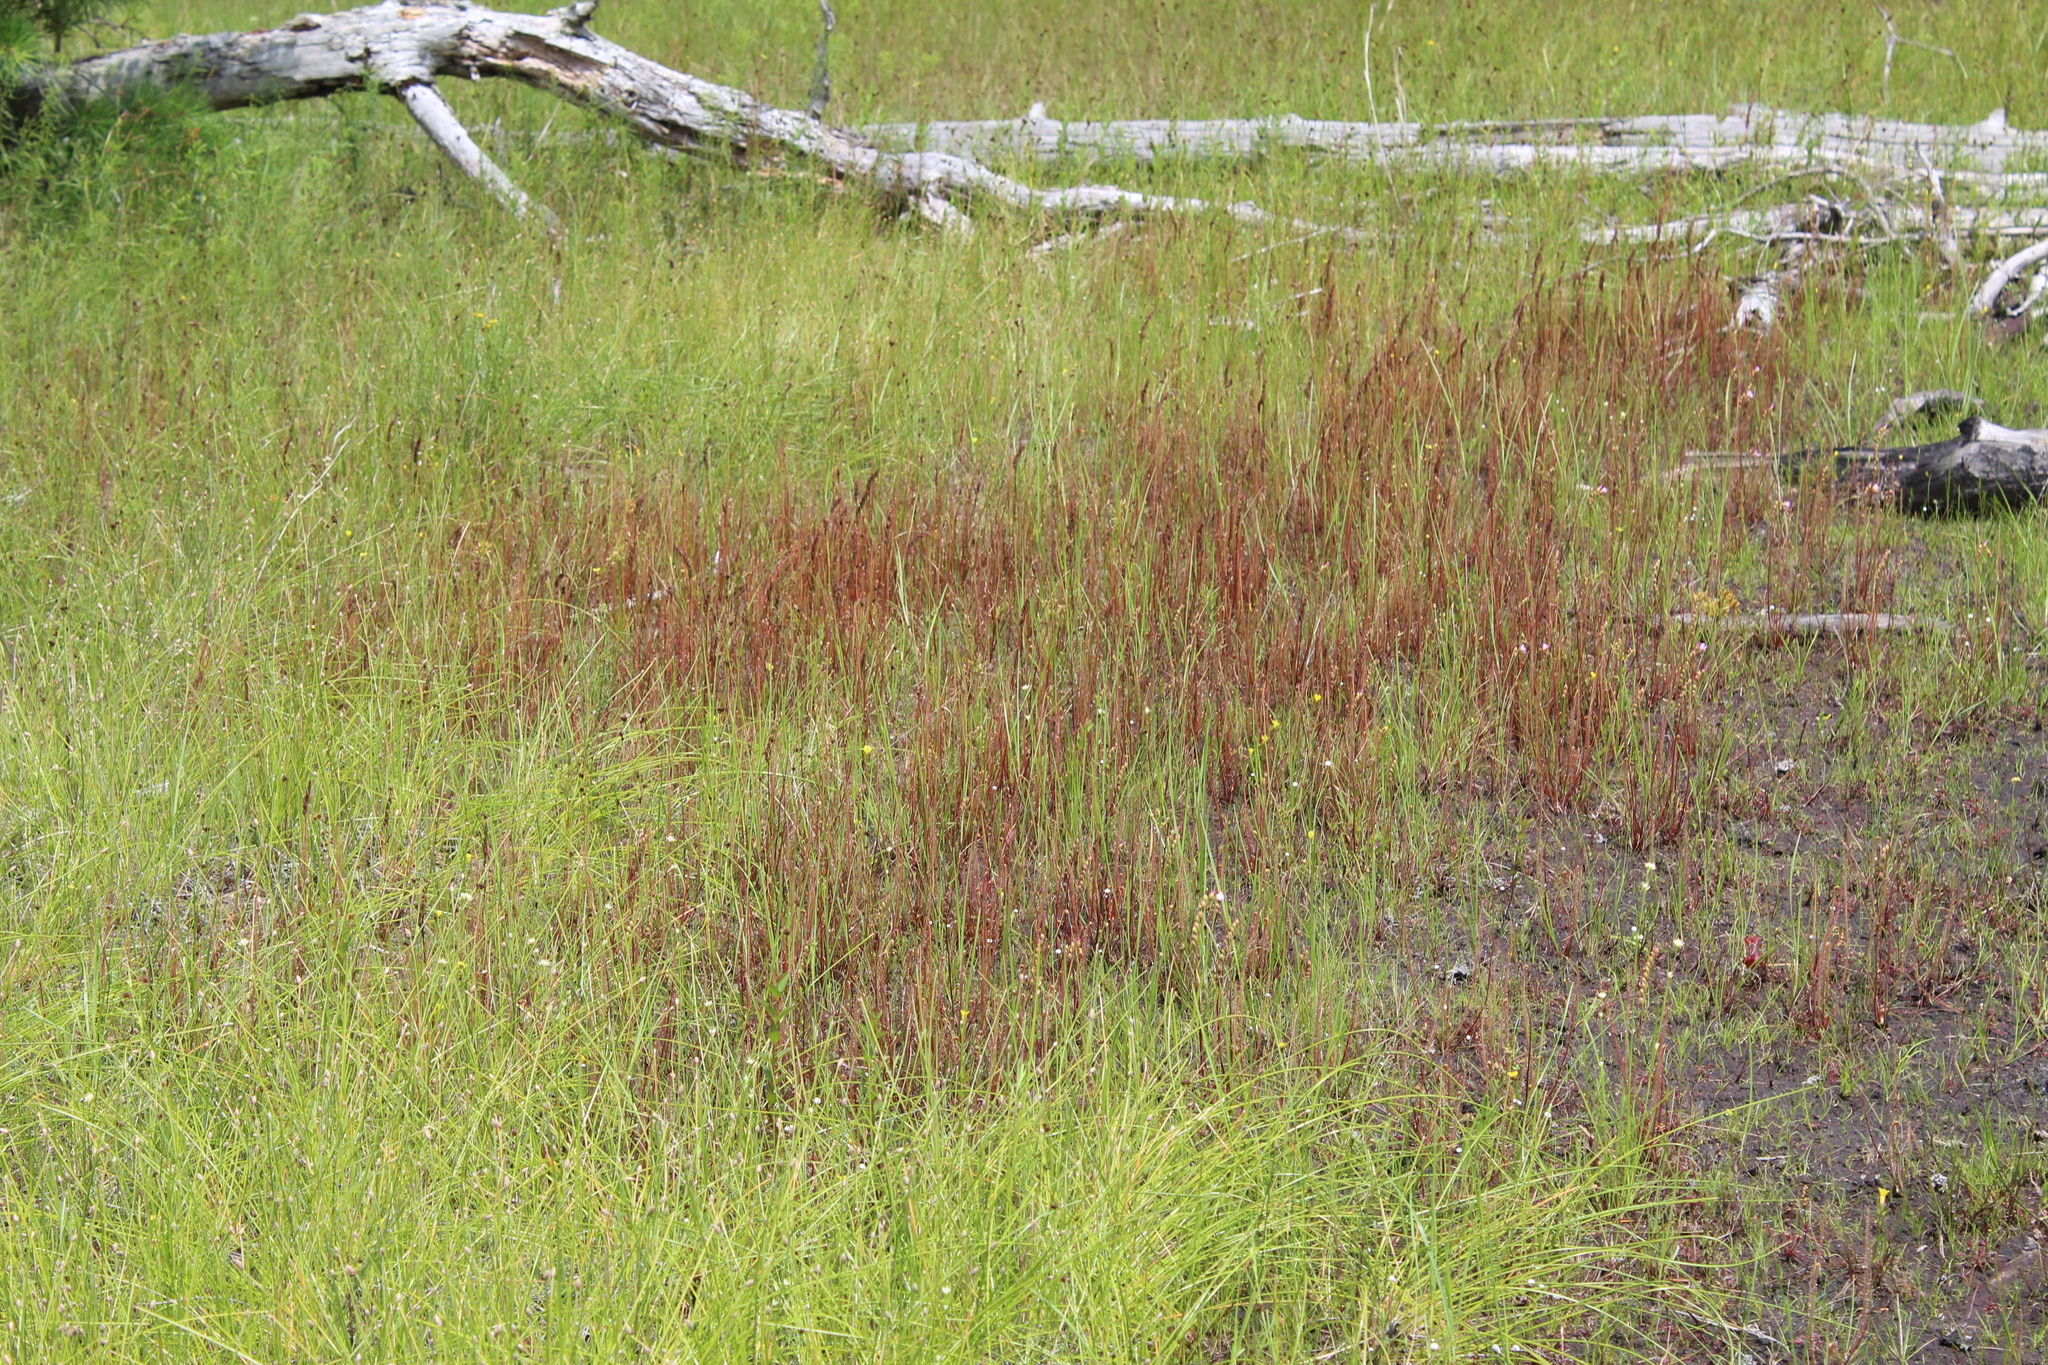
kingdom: Plantae
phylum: Tracheophyta
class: Magnoliopsida
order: Caryophyllales
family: Droseraceae
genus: Drosera
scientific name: Drosera filiformis
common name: Dew-thread
